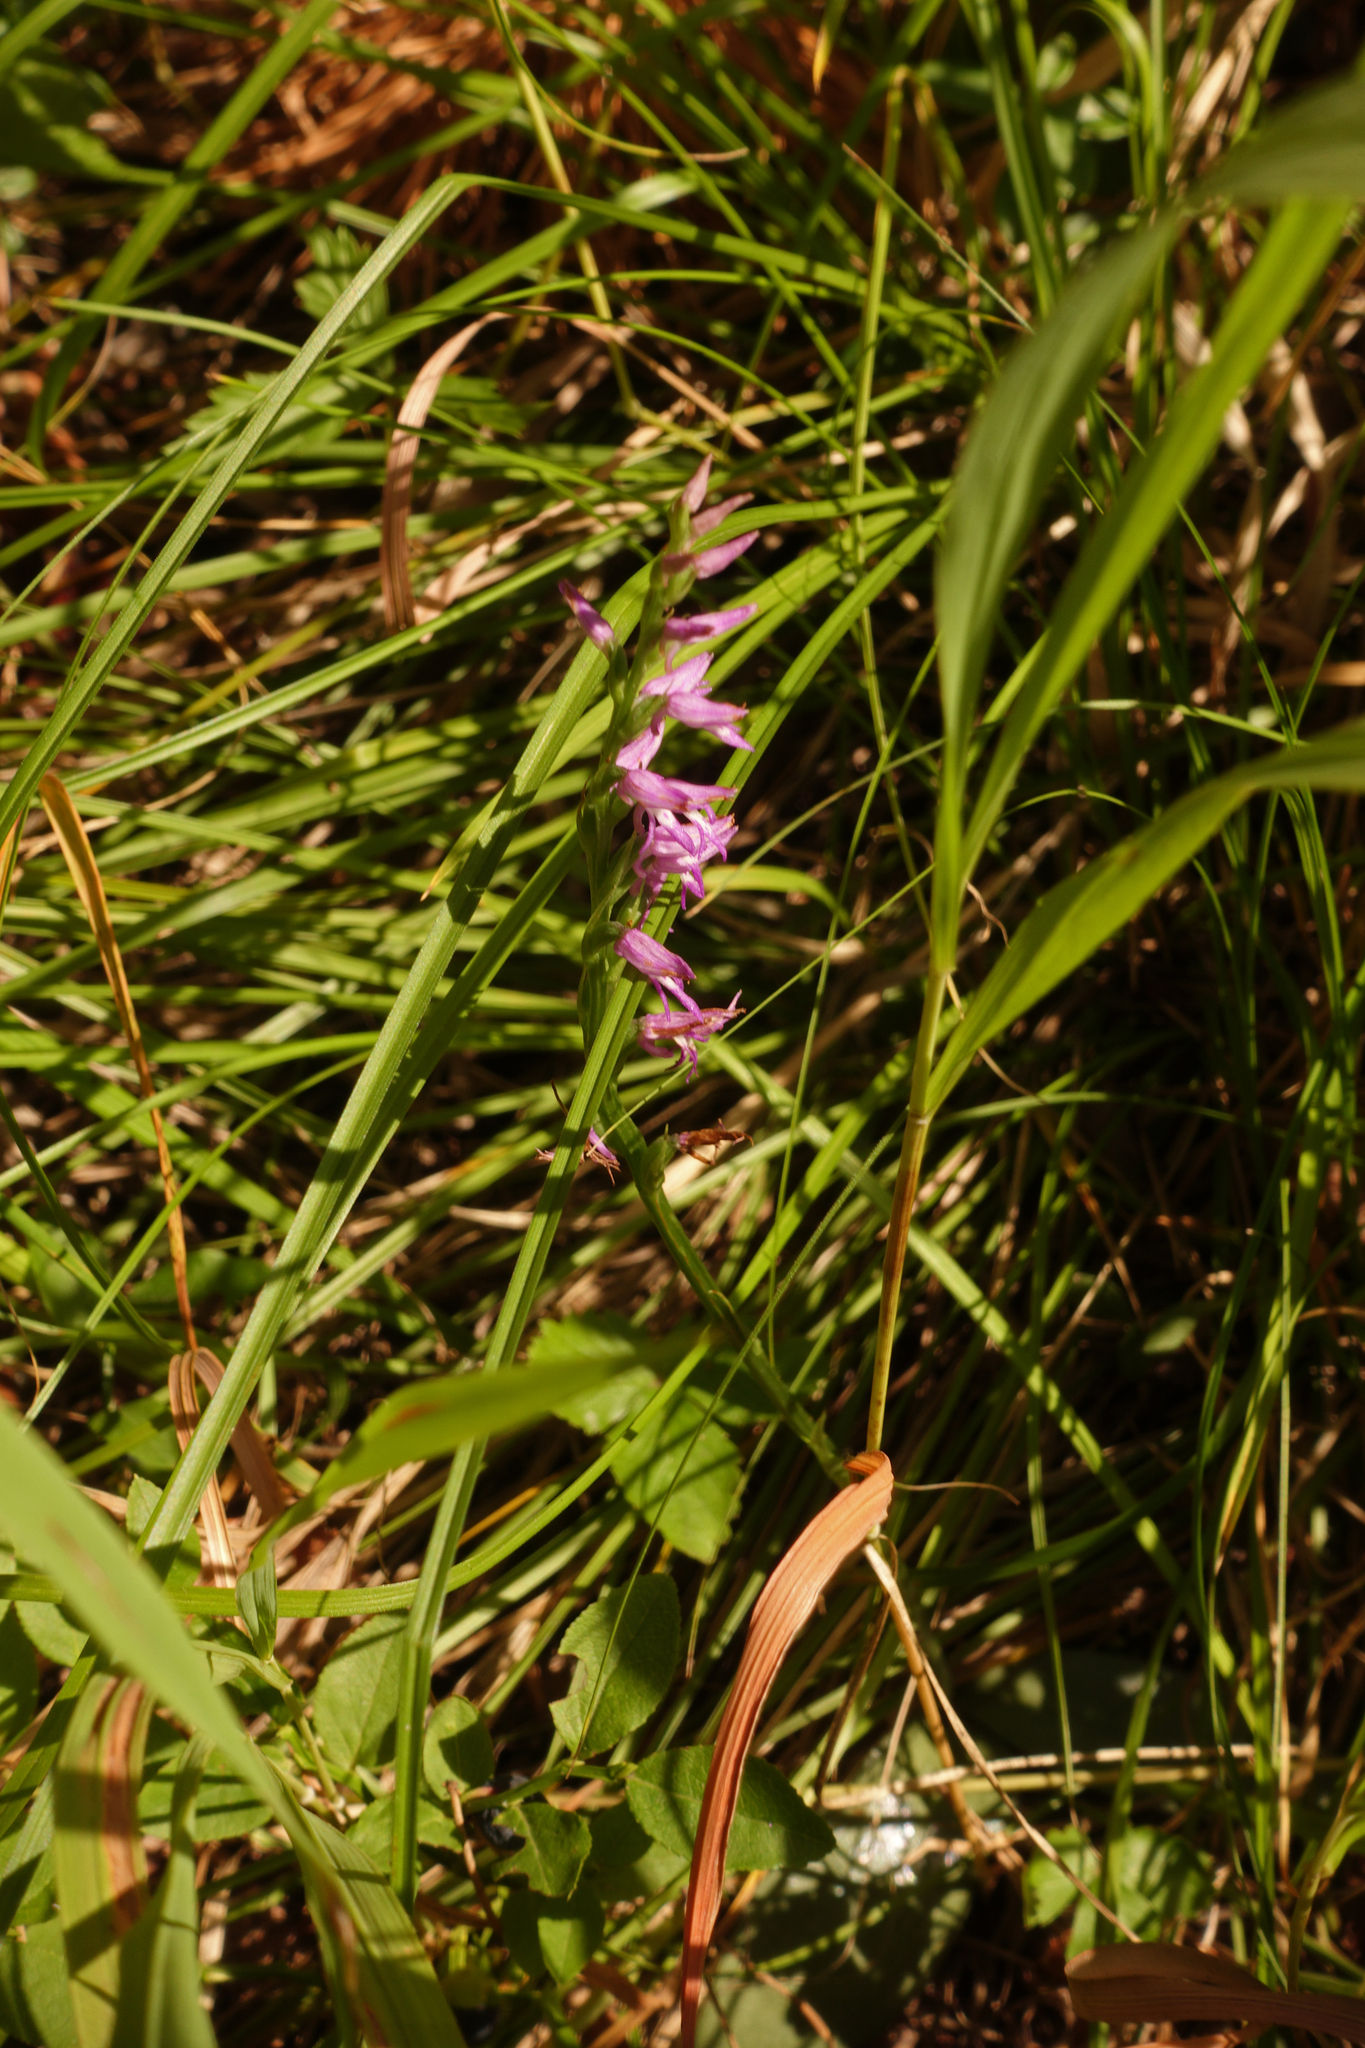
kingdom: Plantae
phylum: Tracheophyta
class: Liliopsida
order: Asparagales
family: Orchidaceae
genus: Hemipilia
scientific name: Hemipilia cucullata
